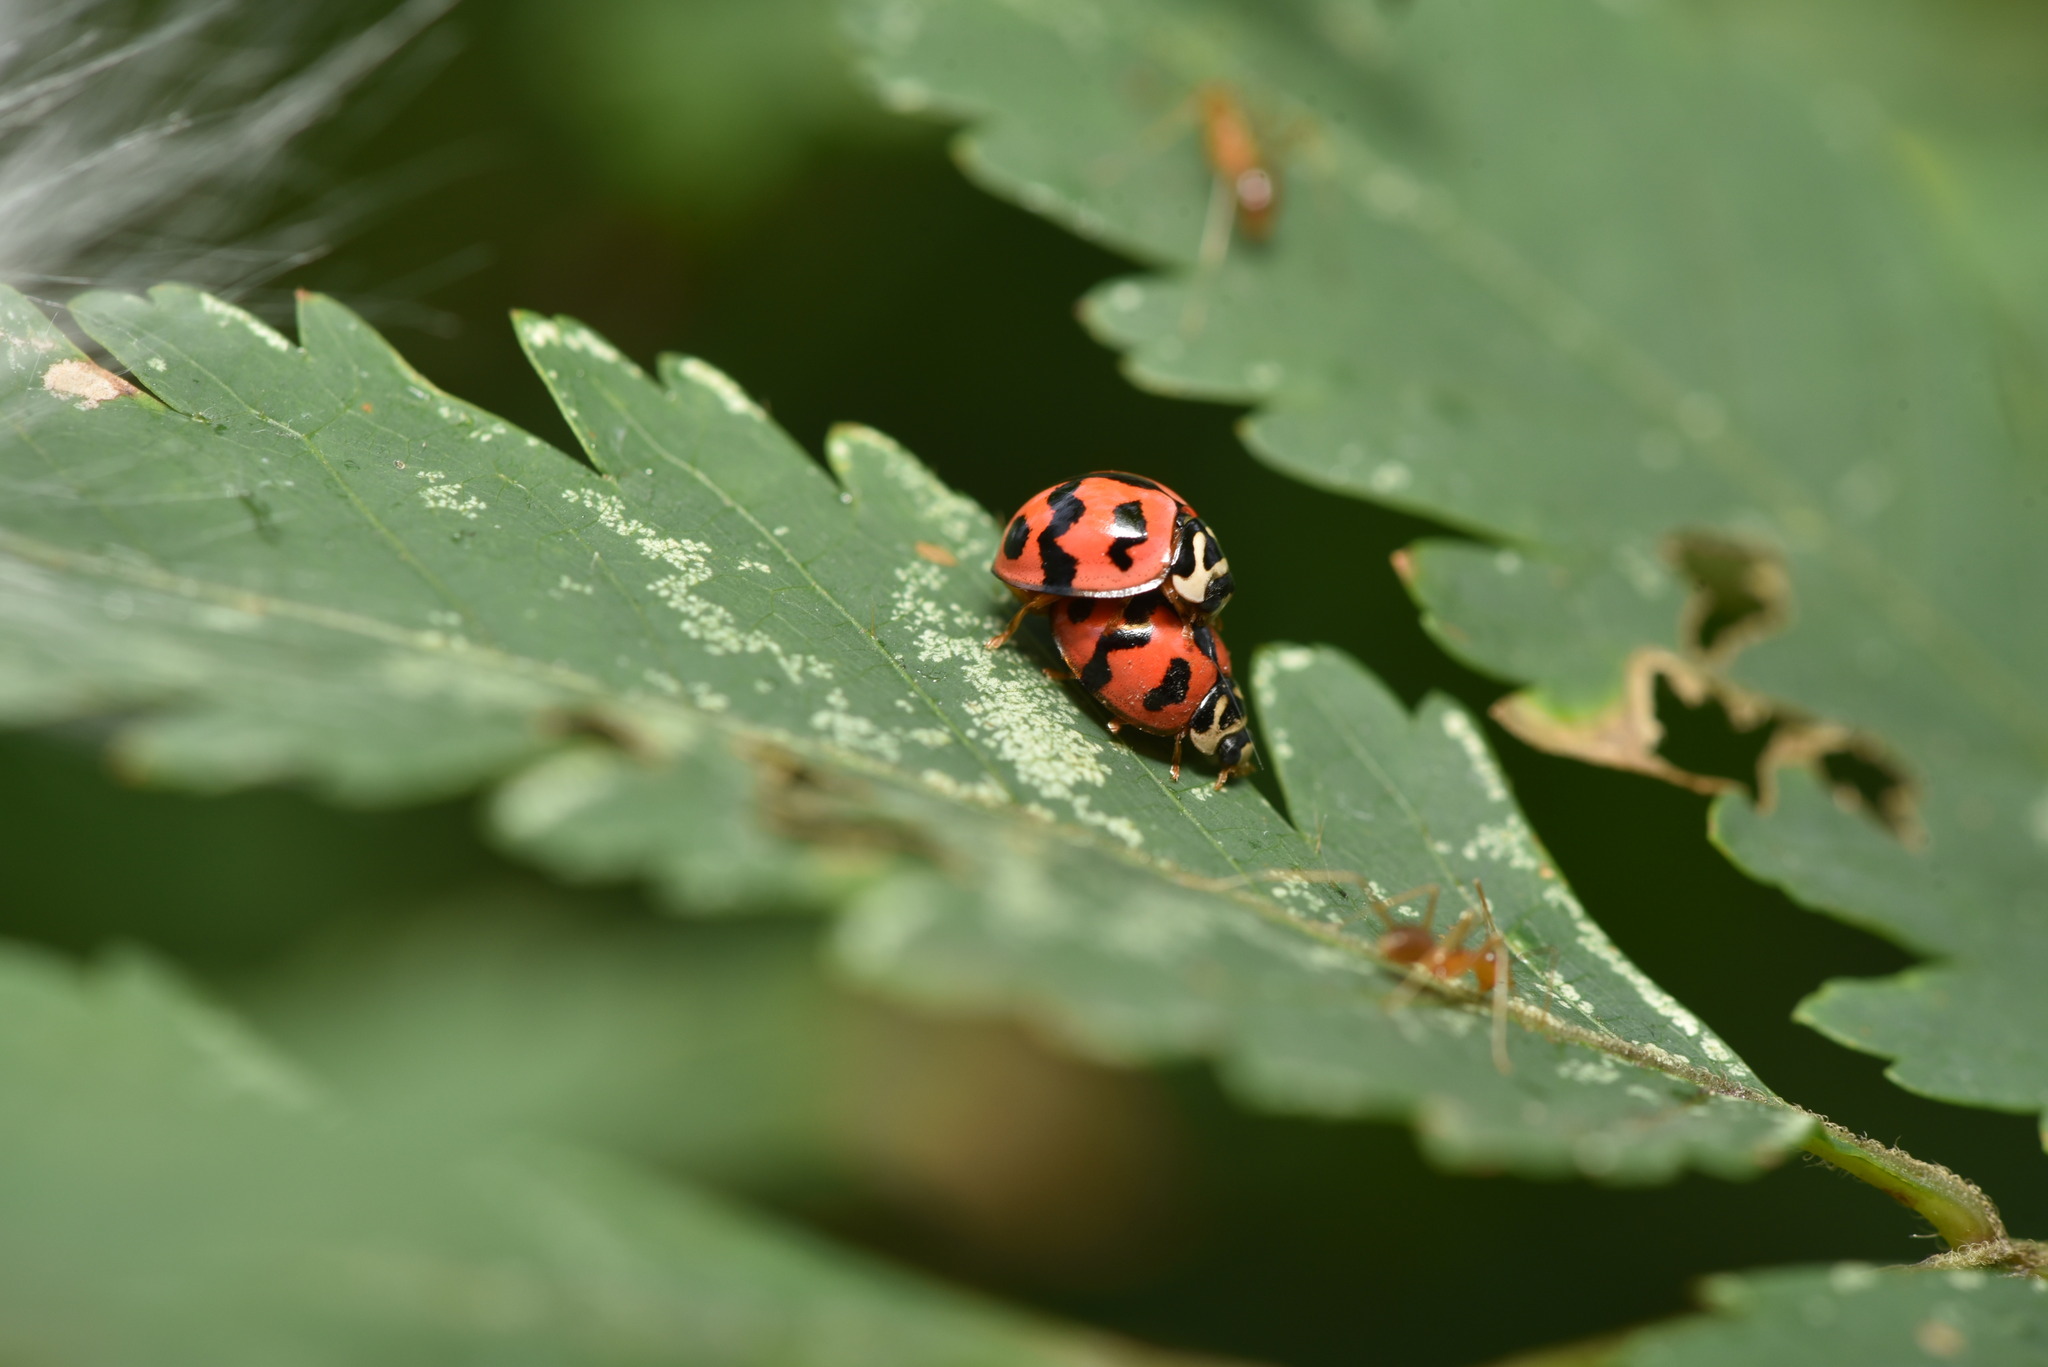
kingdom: Animalia
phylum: Arthropoda
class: Insecta
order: Coleoptera
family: Coccinellidae
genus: Cheilomenes
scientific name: Cheilomenes sexmaculata
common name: Ladybird beetle
